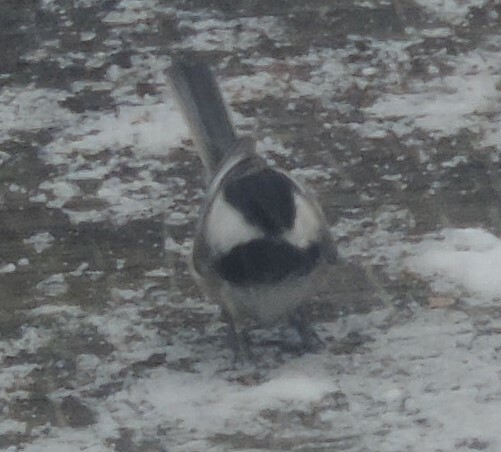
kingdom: Animalia
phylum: Chordata
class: Aves
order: Passeriformes
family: Paridae
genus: Poecile
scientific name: Poecile atricapillus
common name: Black-capped chickadee
